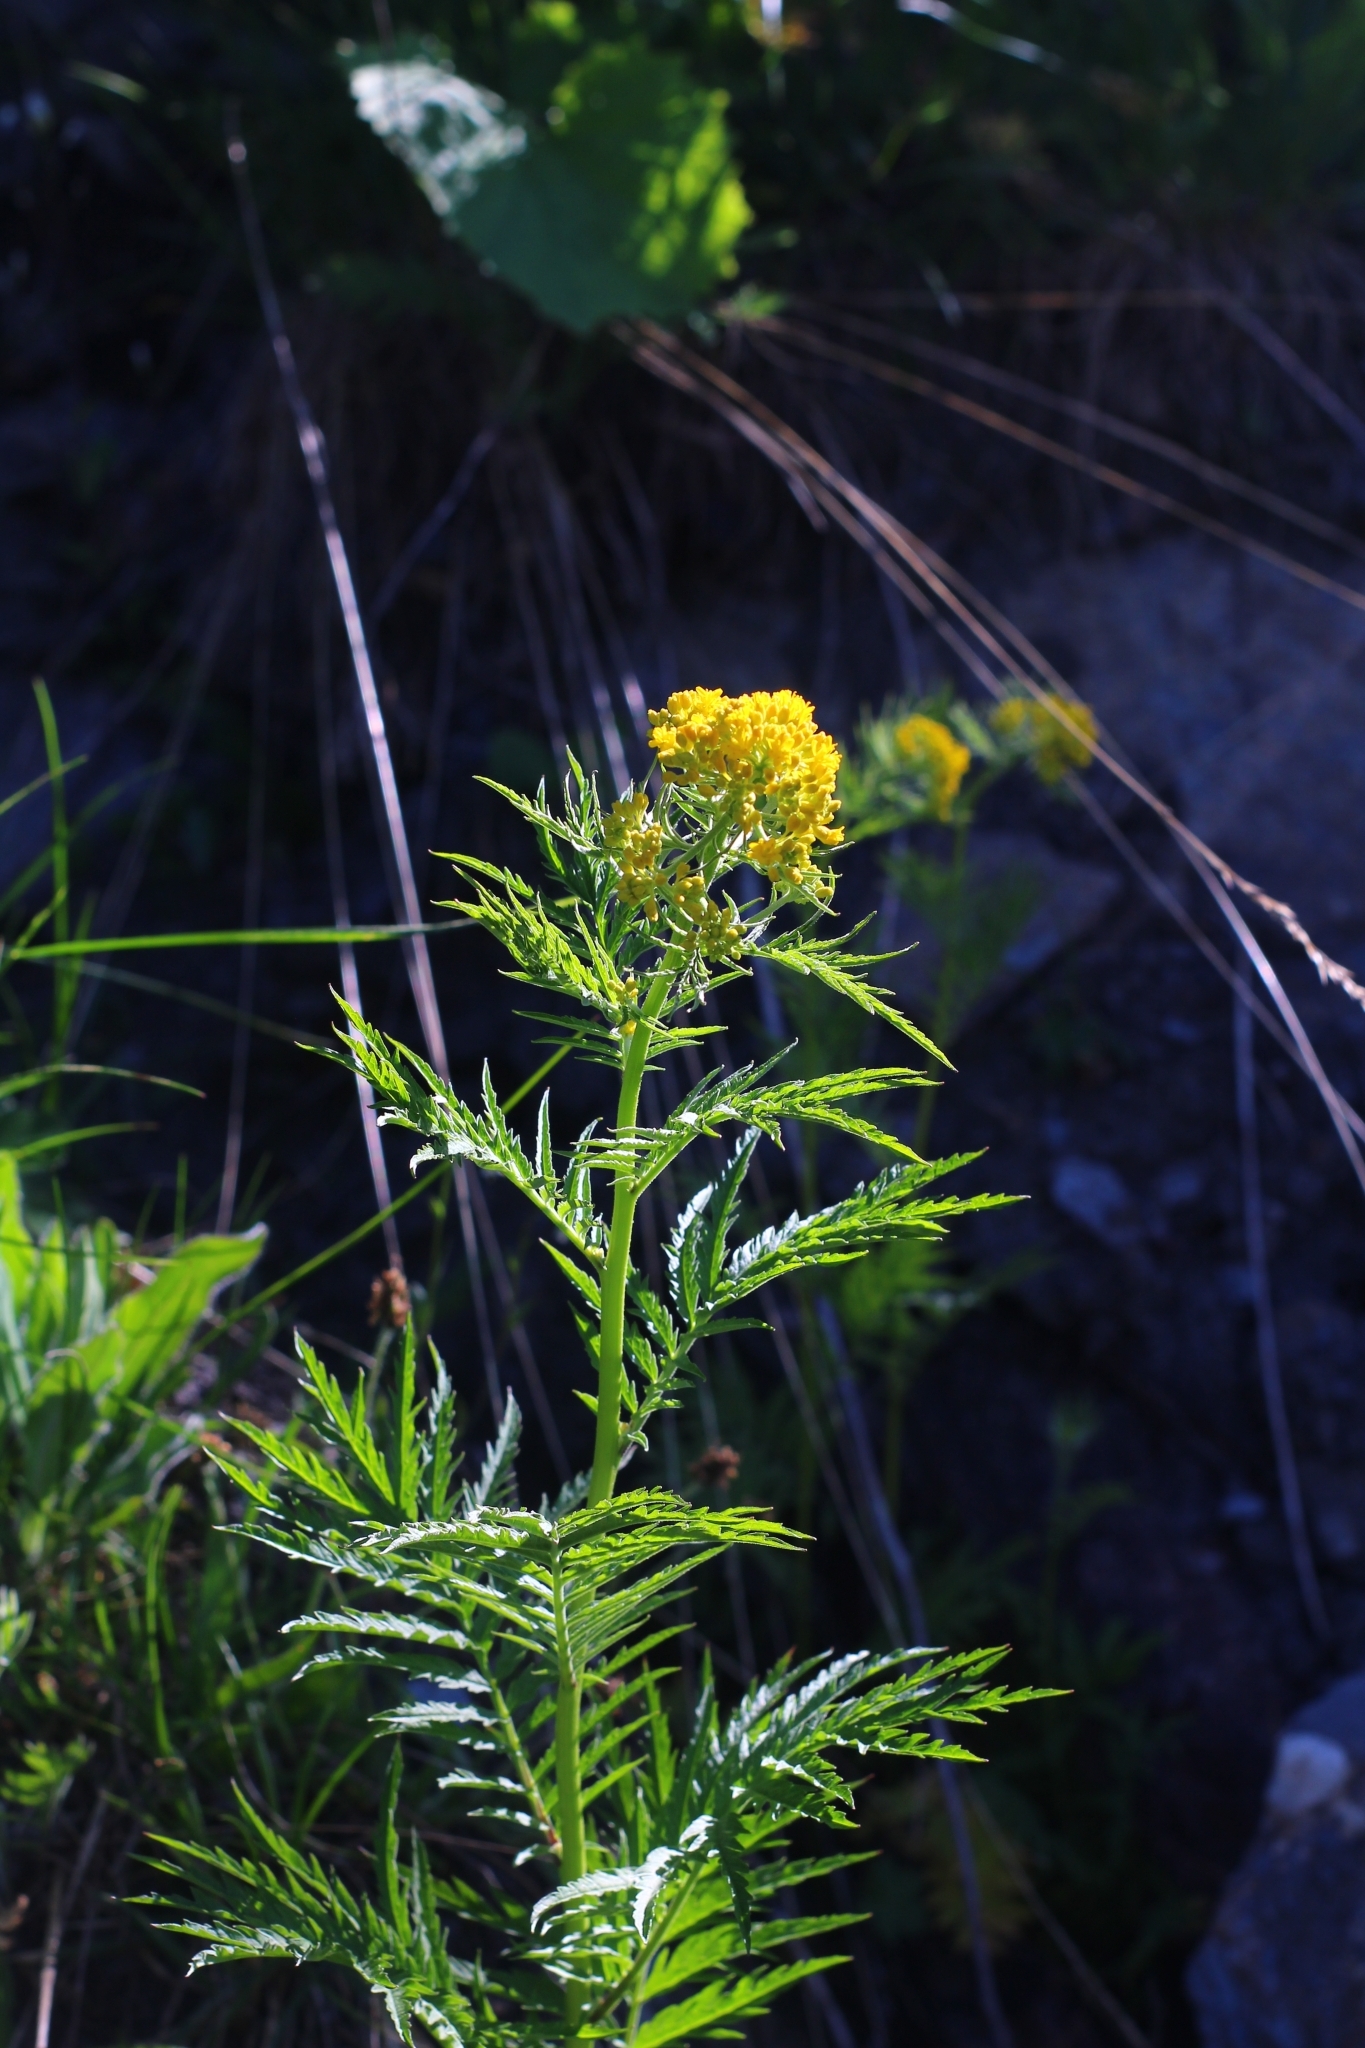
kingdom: Plantae
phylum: Tracheophyta
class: Magnoliopsida
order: Brassicales
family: Brassicaceae
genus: Descurainia
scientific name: Descurainia tanacetifolia
